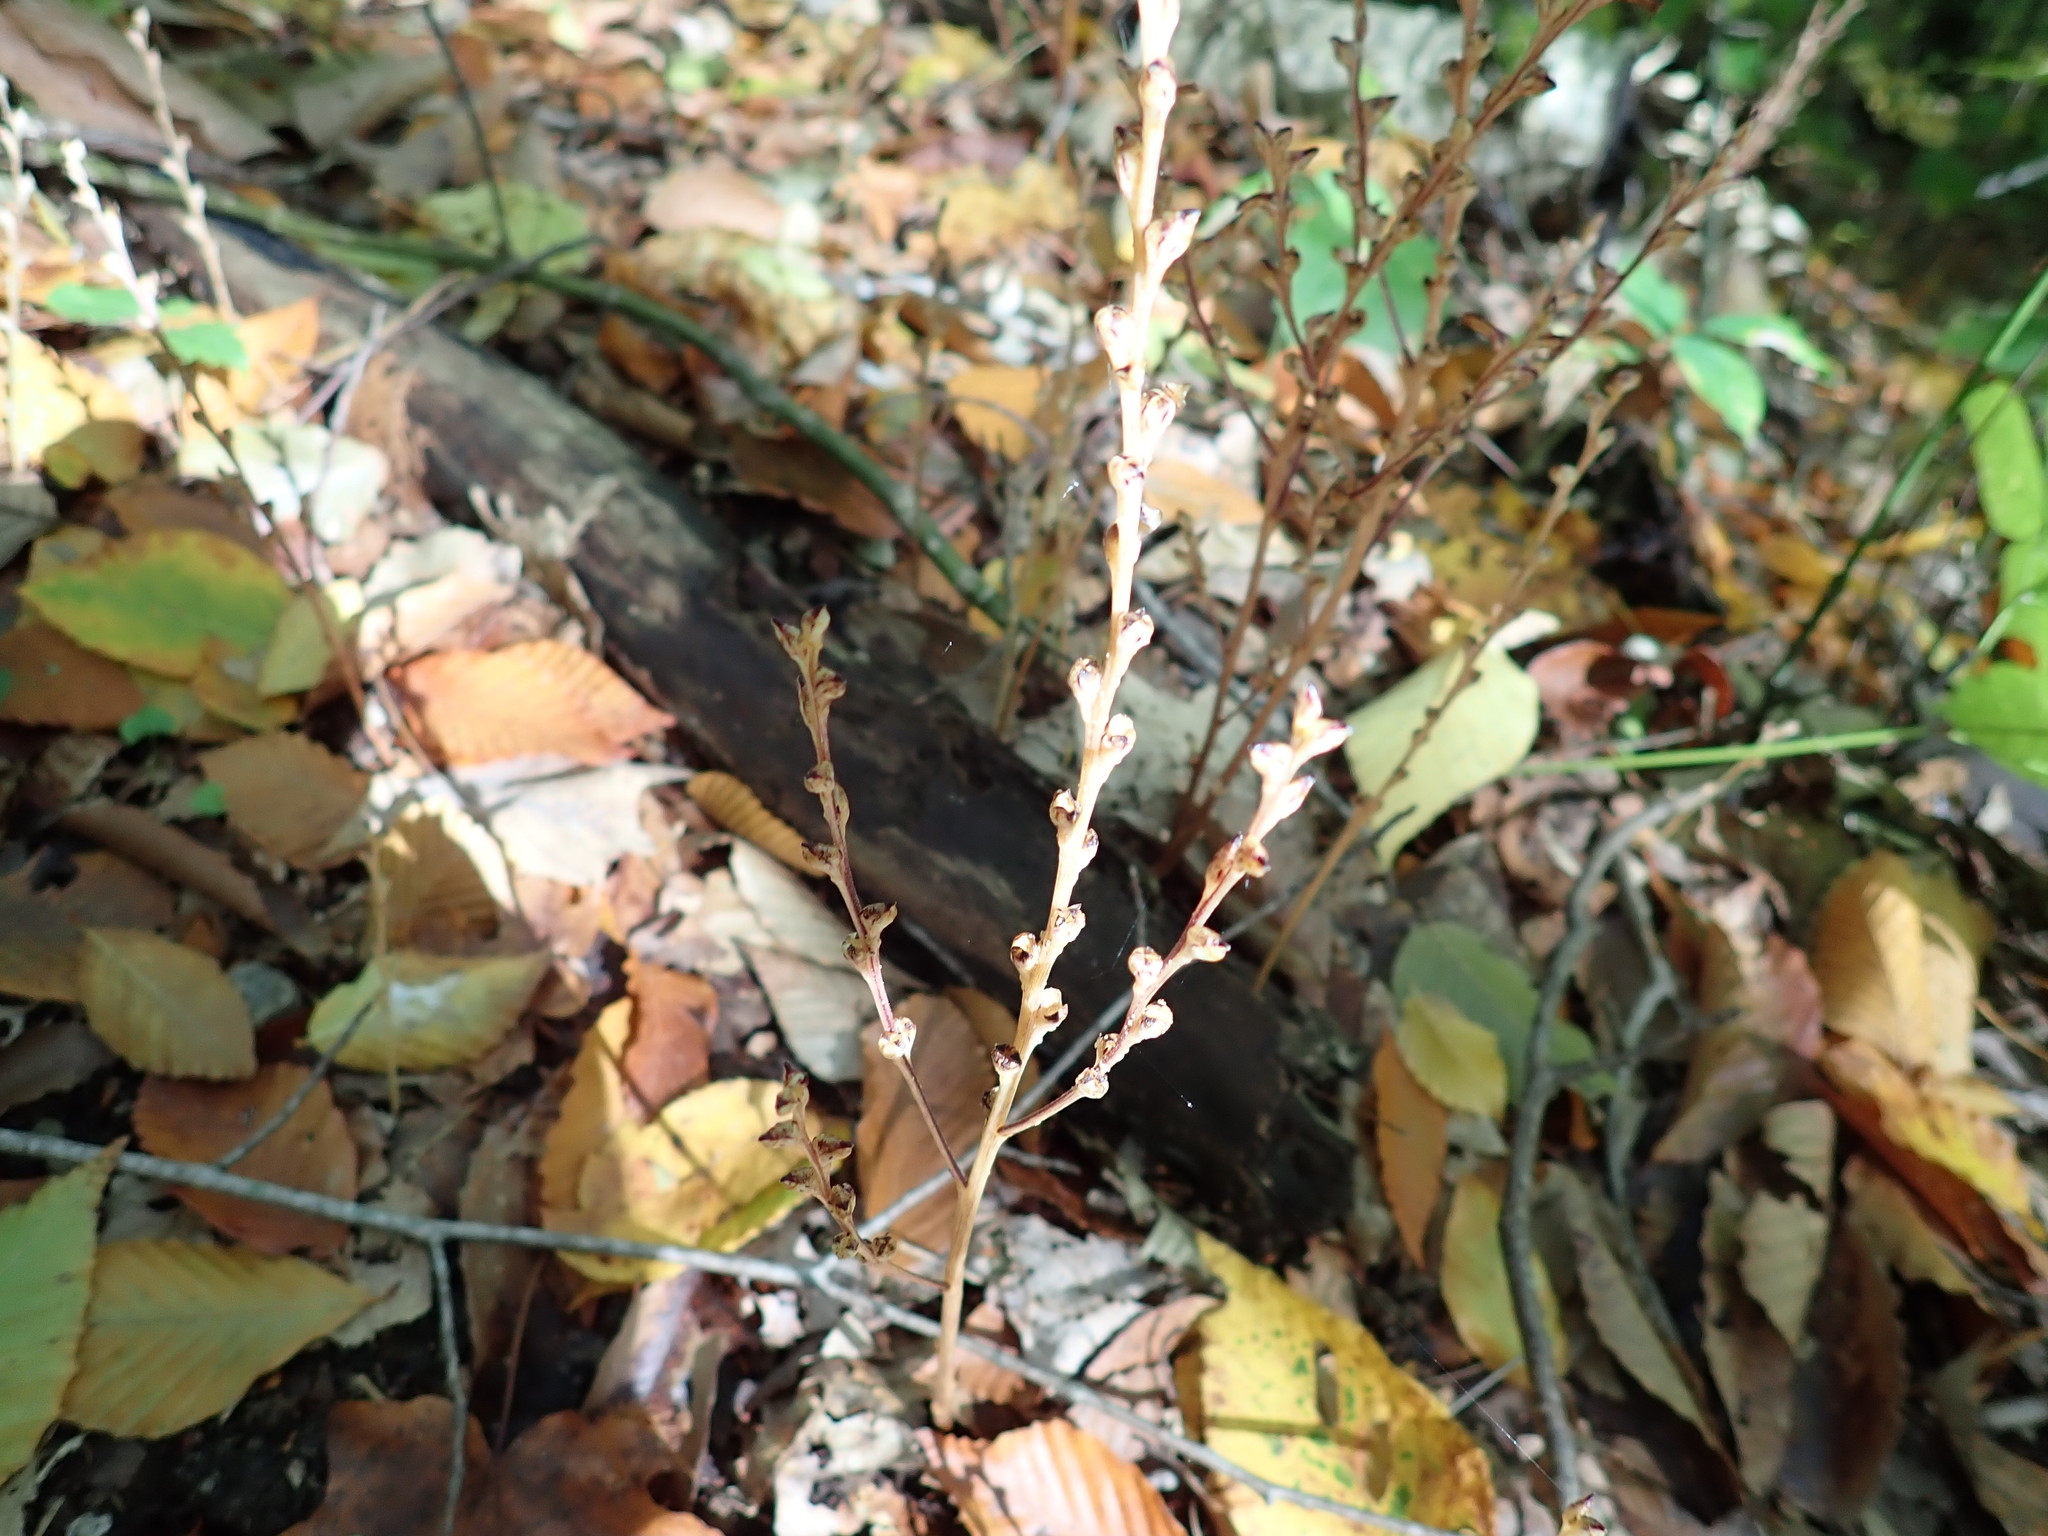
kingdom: Plantae
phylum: Tracheophyta
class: Magnoliopsida
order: Lamiales
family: Orobanchaceae
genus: Epifagus
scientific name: Epifagus virginiana
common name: Beechdrops
